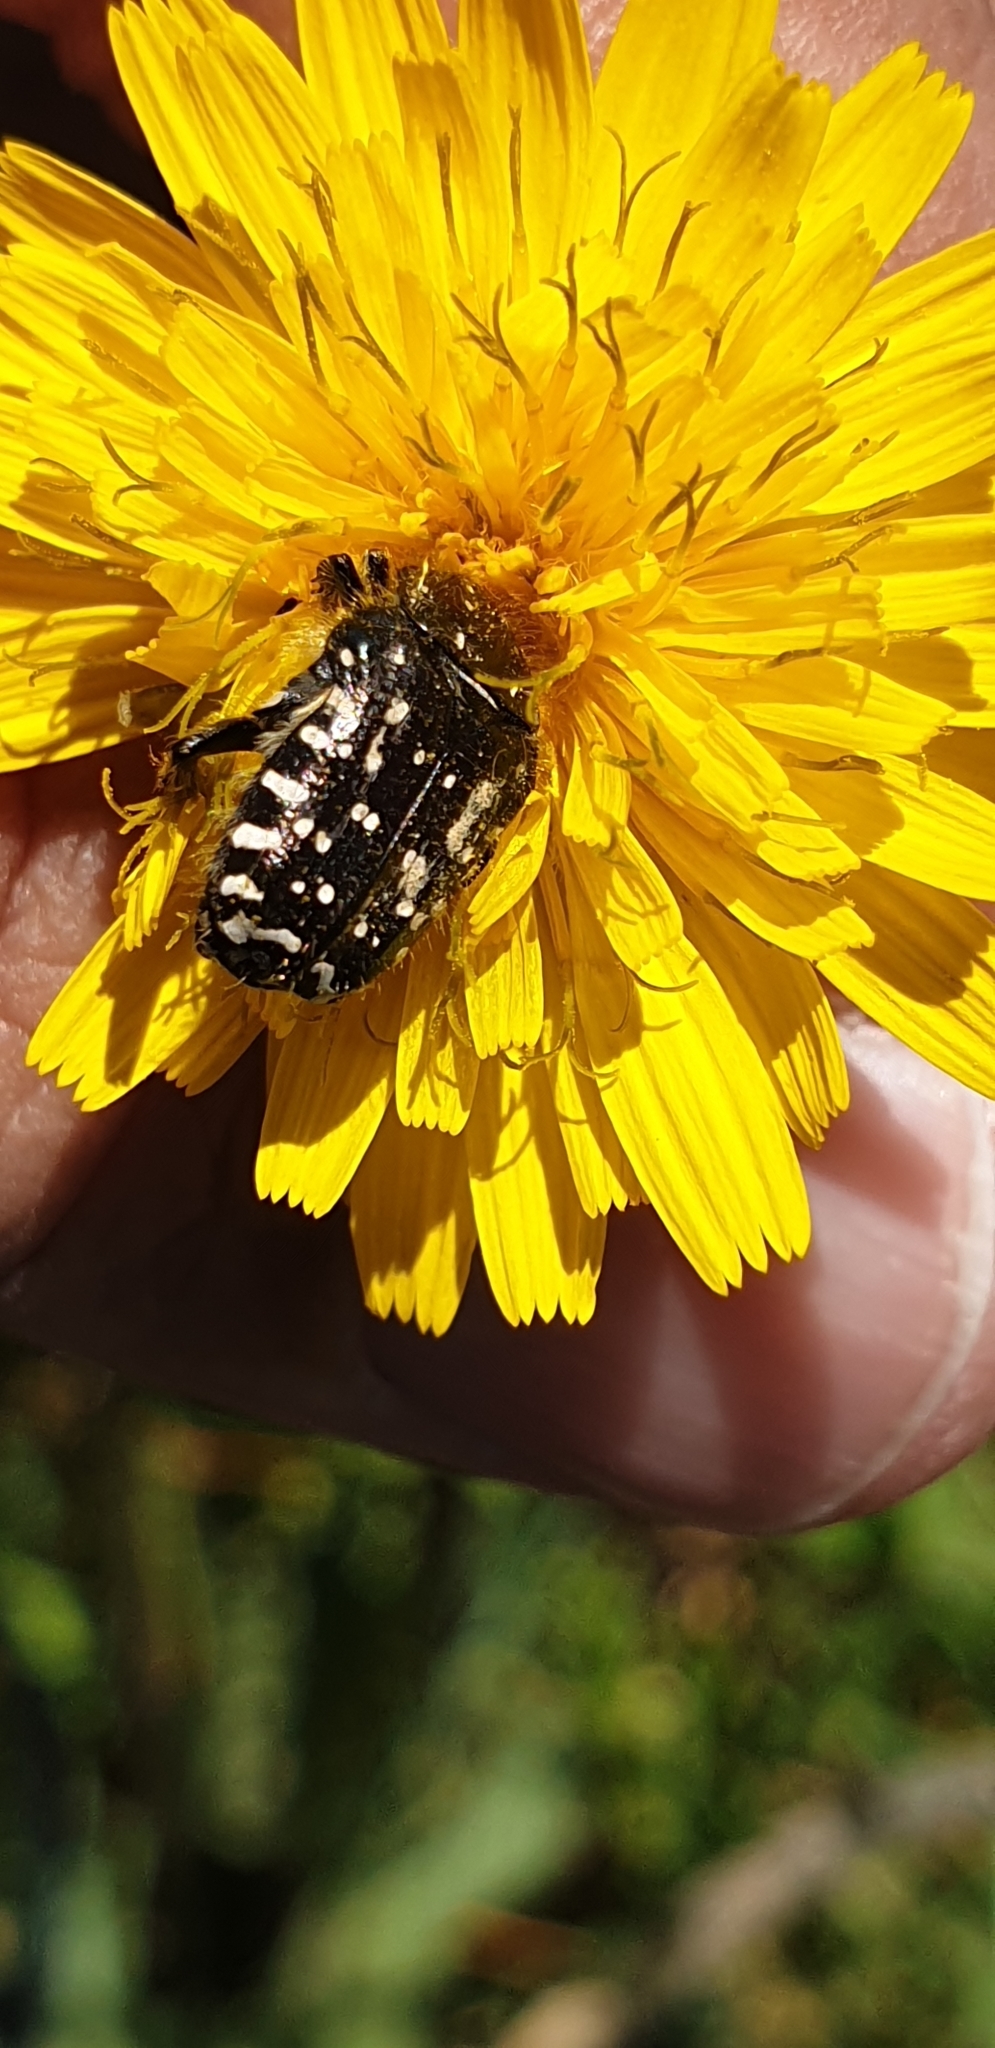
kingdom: Animalia
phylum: Arthropoda
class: Insecta
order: Coleoptera
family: Scarabaeidae
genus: Oxythyrea
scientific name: Oxythyrea funesta
